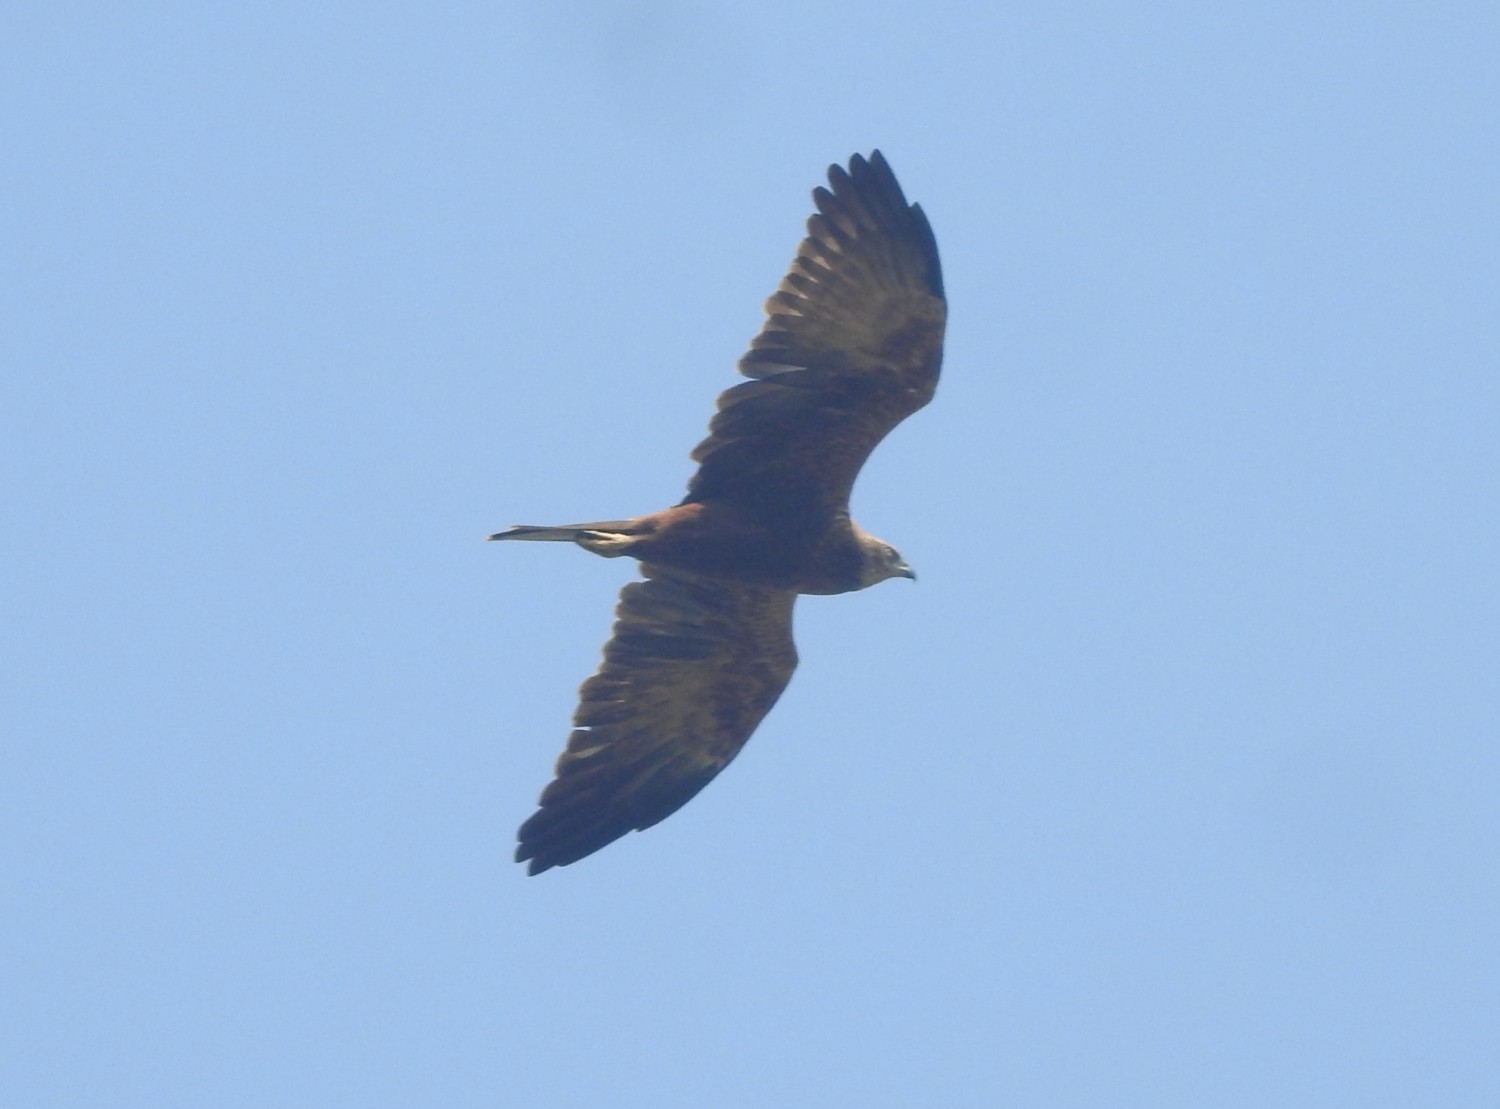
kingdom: Animalia
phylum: Chordata
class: Aves
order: Accipitriformes
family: Accipitridae
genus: Circus
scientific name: Circus aeruginosus
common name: Western marsh harrier
